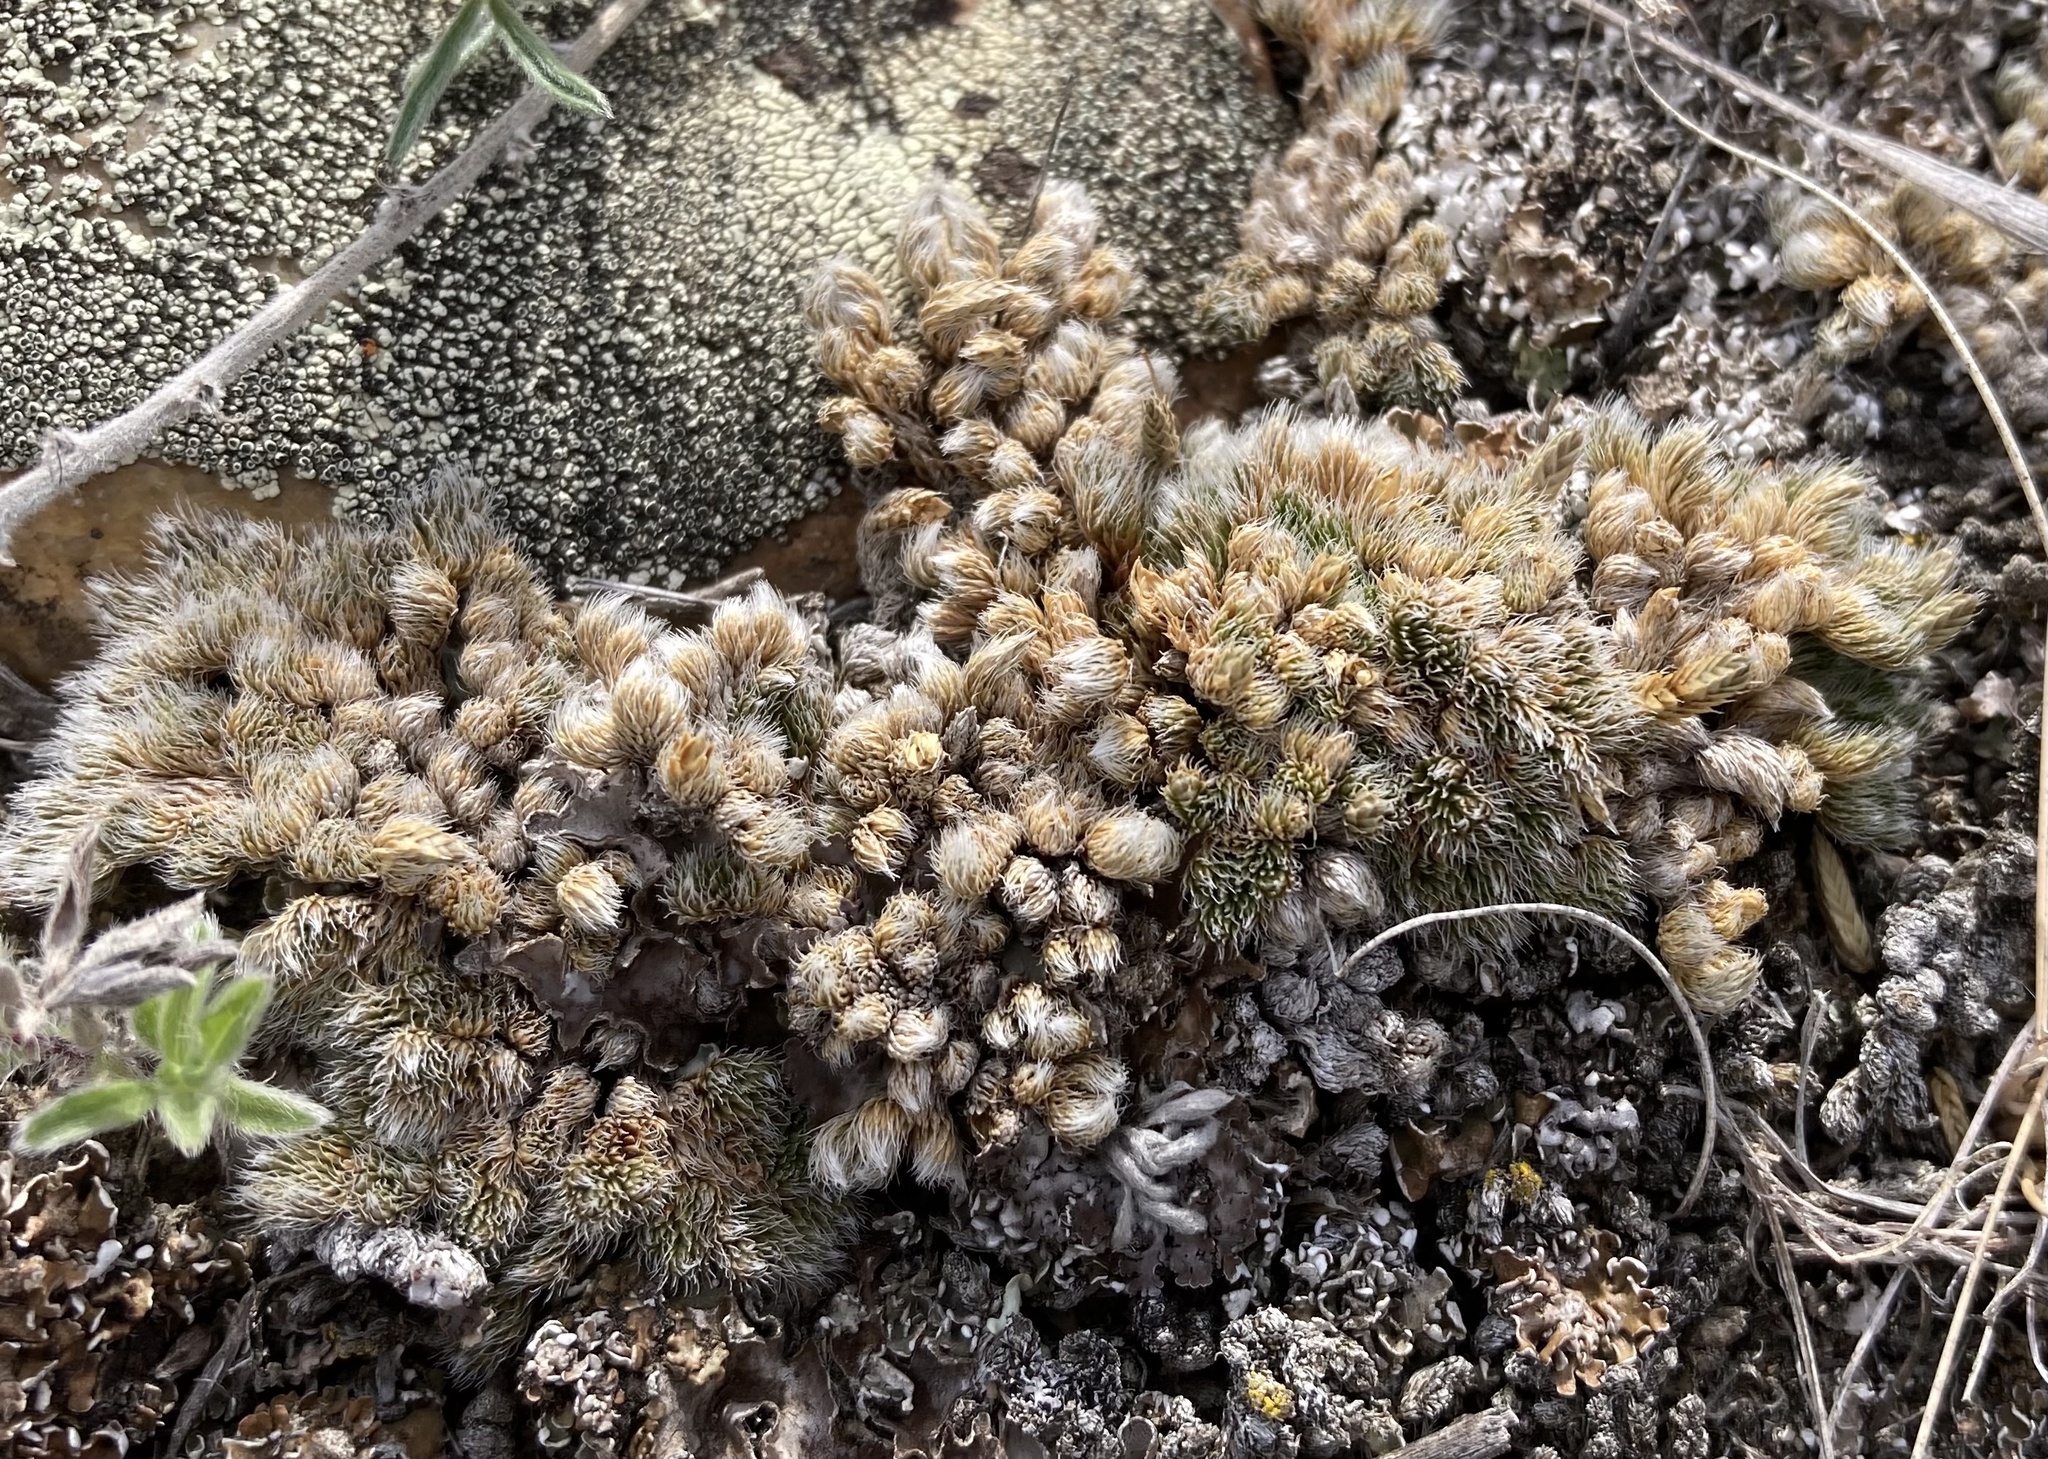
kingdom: Plantae
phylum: Tracheophyta
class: Lycopodiopsida
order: Selaginellales
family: Selaginellaceae
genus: Selaginella
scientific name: Selaginella densa
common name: Mountain spike-moss
